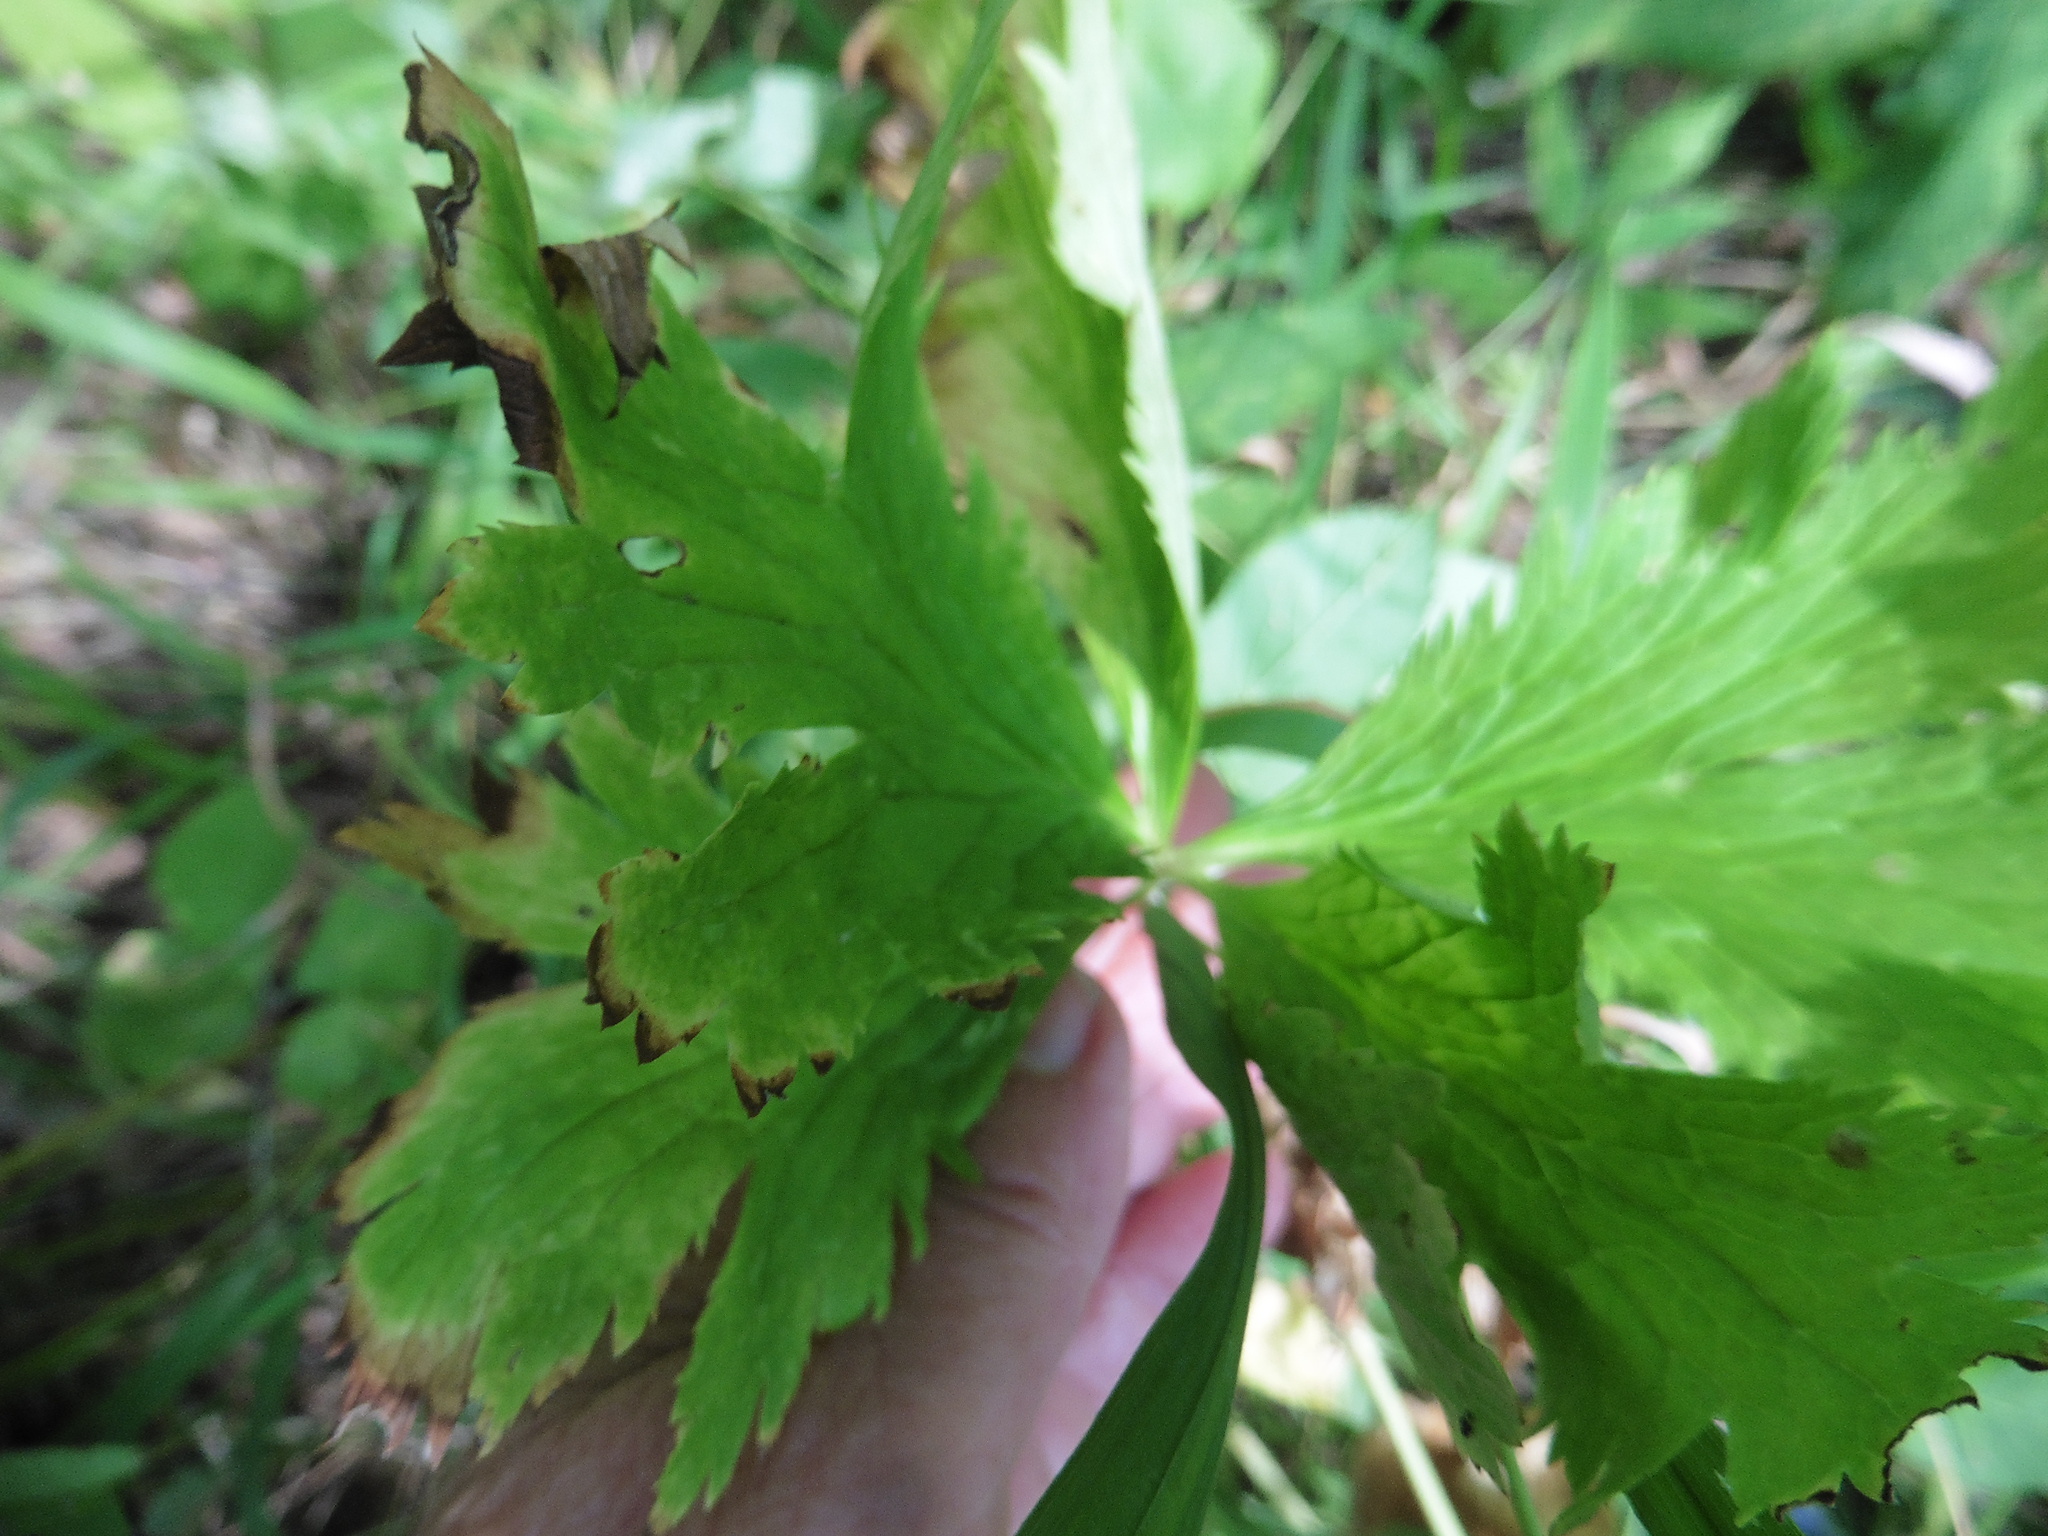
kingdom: Plantae
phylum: Tracheophyta
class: Magnoliopsida
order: Ranunculales
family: Ranunculaceae
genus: Trollius
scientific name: Trollius europaeus
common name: European globeflower
